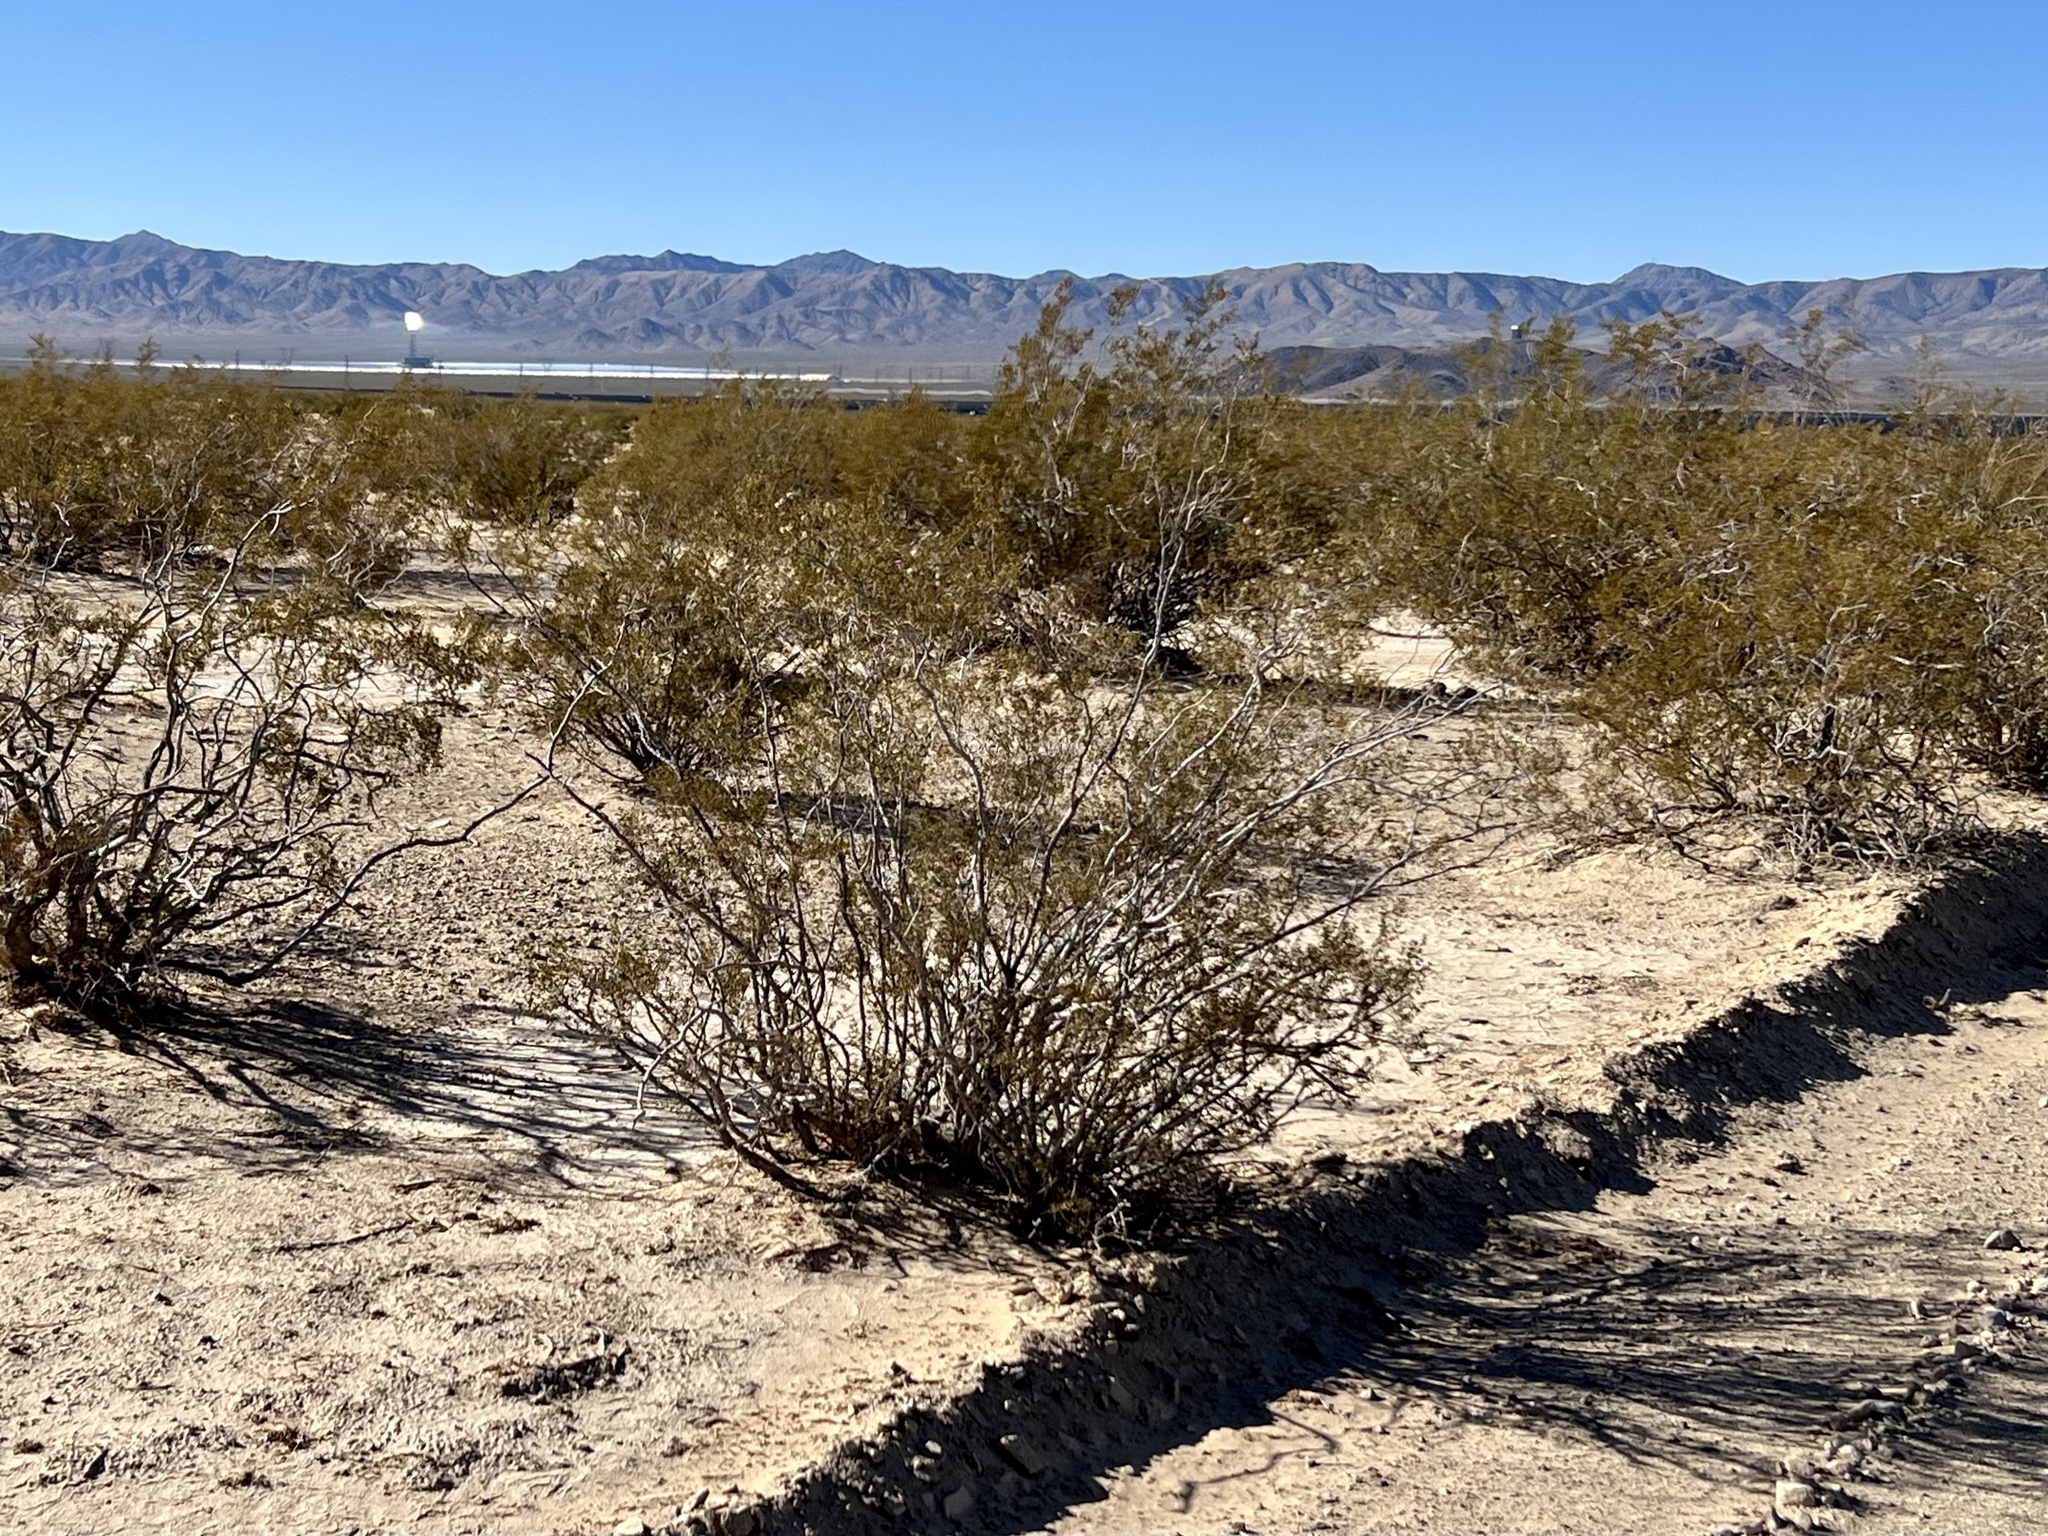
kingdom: Plantae
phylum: Tracheophyta
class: Magnoliopsida
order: Zygophyllales
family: Zygophyllaceae
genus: Larrea
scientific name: Larrea tridentata
